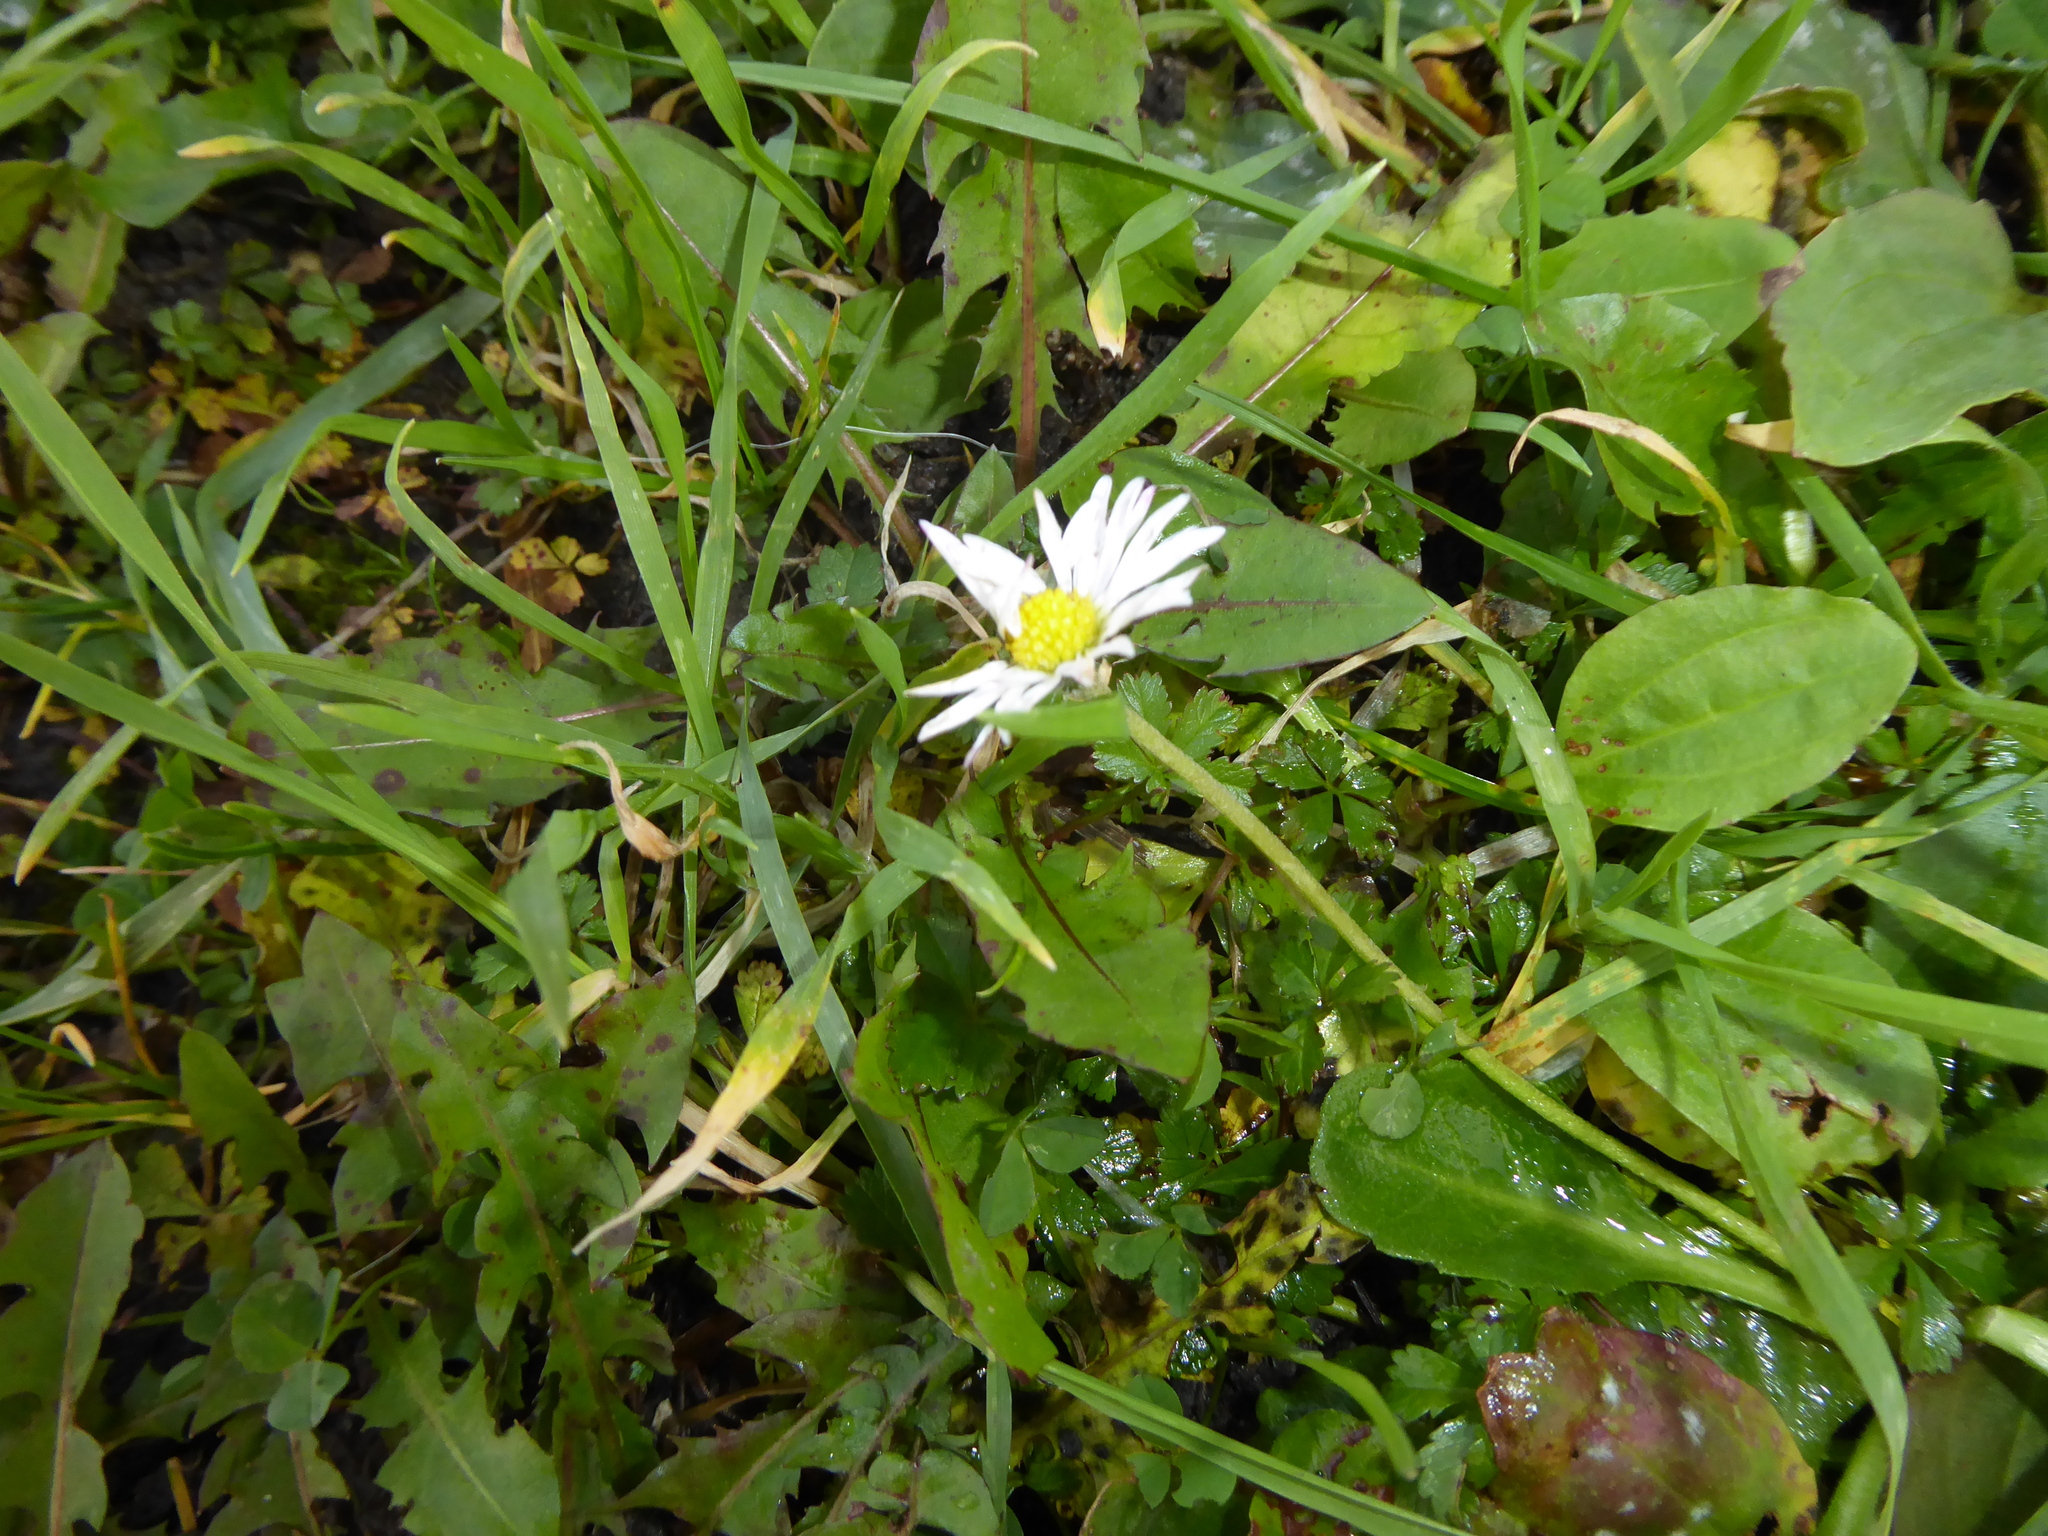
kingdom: Plantae
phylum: Tracheophyta
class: Magnoliopsida
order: Asterales
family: Asteraceae
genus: Bellis
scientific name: Bellis perennis
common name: Lawndaisy
